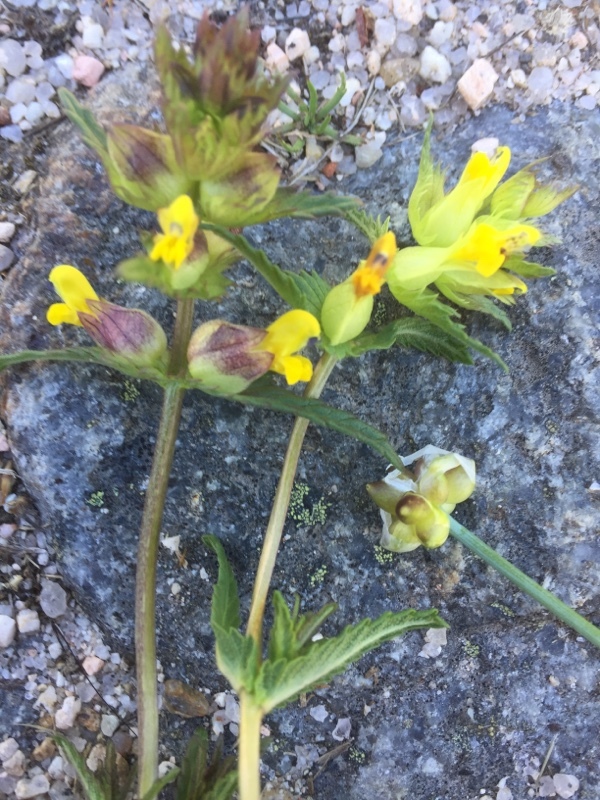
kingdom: Plantae
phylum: Tracheophyta
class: Magnoliopsida
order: Lamiales
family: Orobanchaceae
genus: Rhinanthus
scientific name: Rhinanthus minor
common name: Yellow-rattle
